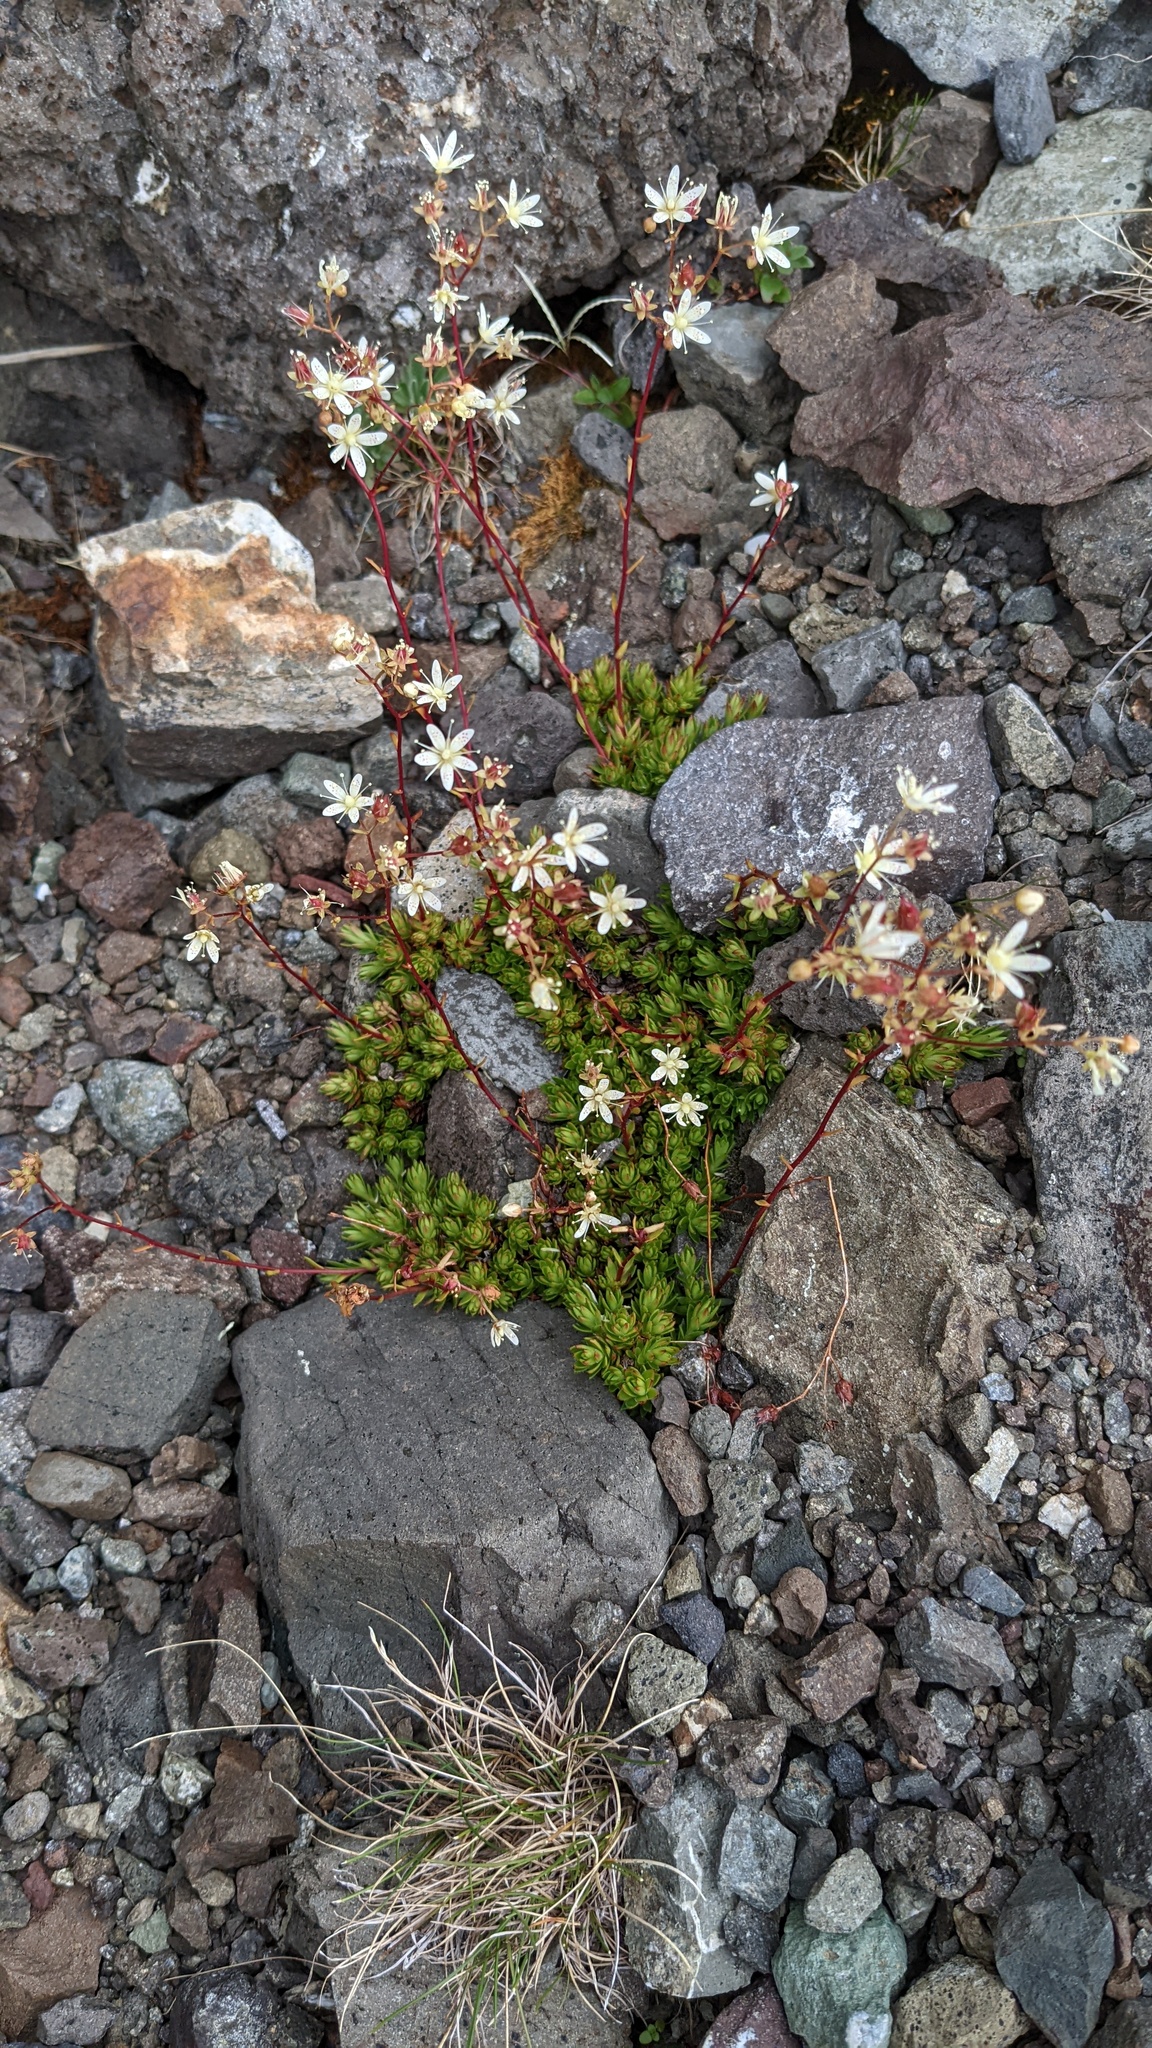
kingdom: Plantae
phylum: Tracheophyta
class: Magnoliopsida
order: Saxifragales
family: Saxifragaceae
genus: Saxifraga
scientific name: Saxifraga bronchialis
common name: Matted saxifrage
